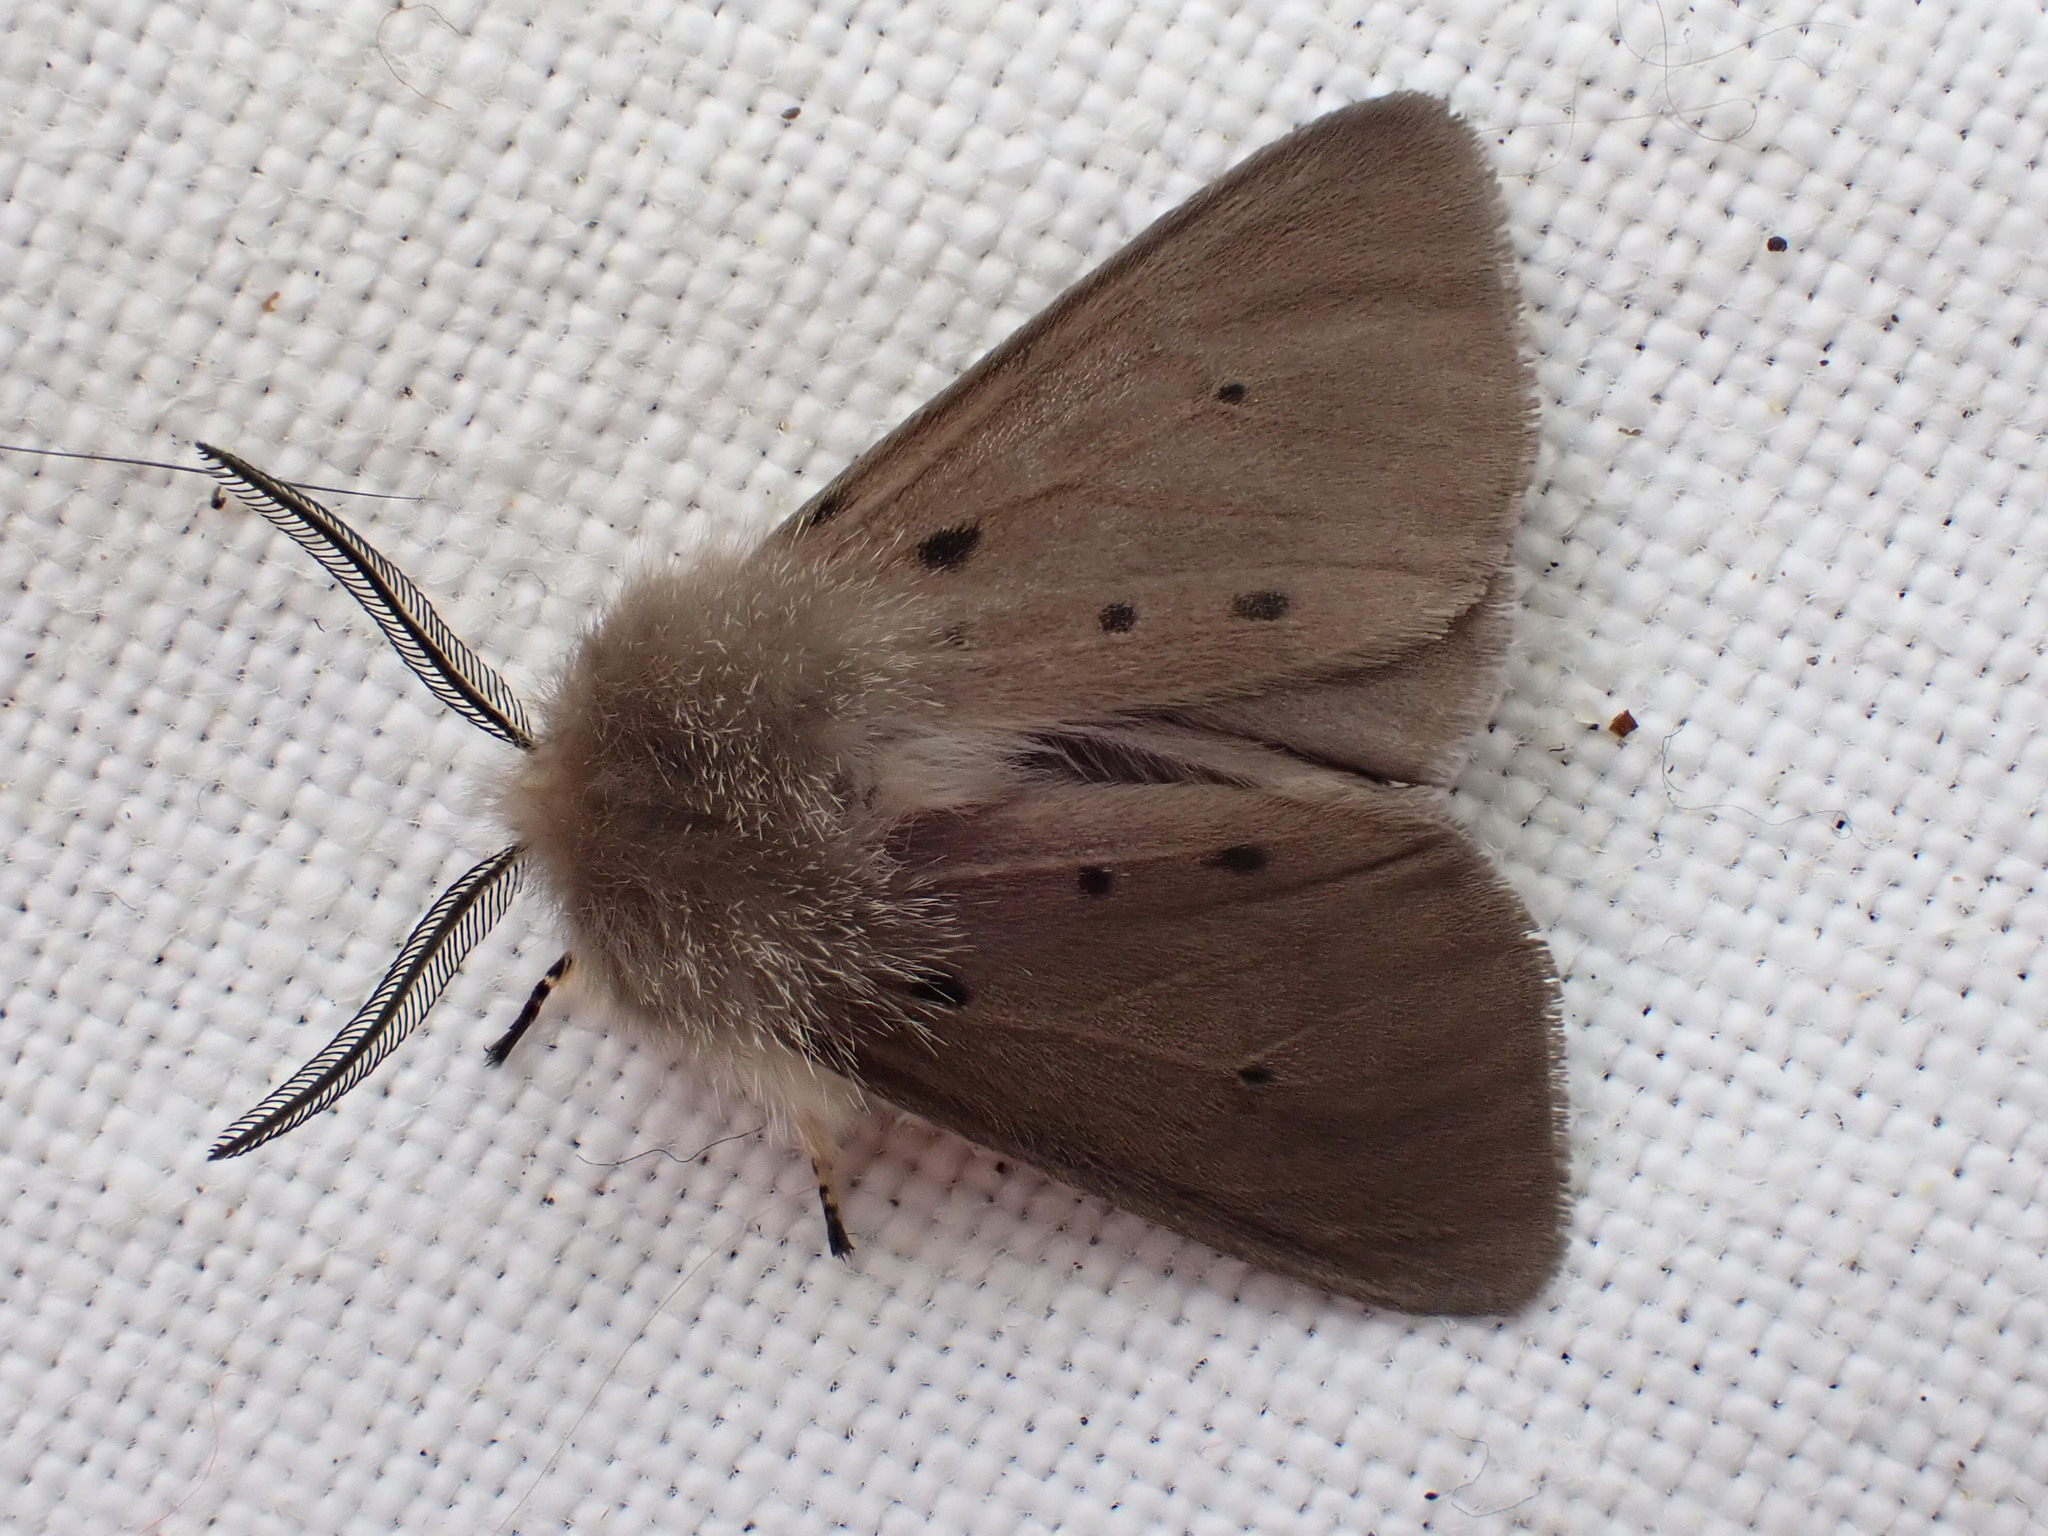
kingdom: Animalia
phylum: Arthropoda
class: Insecta
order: Lepidoptera
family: Erebidae
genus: Diaphora
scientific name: Diaphora mendica
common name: Muslin moth
